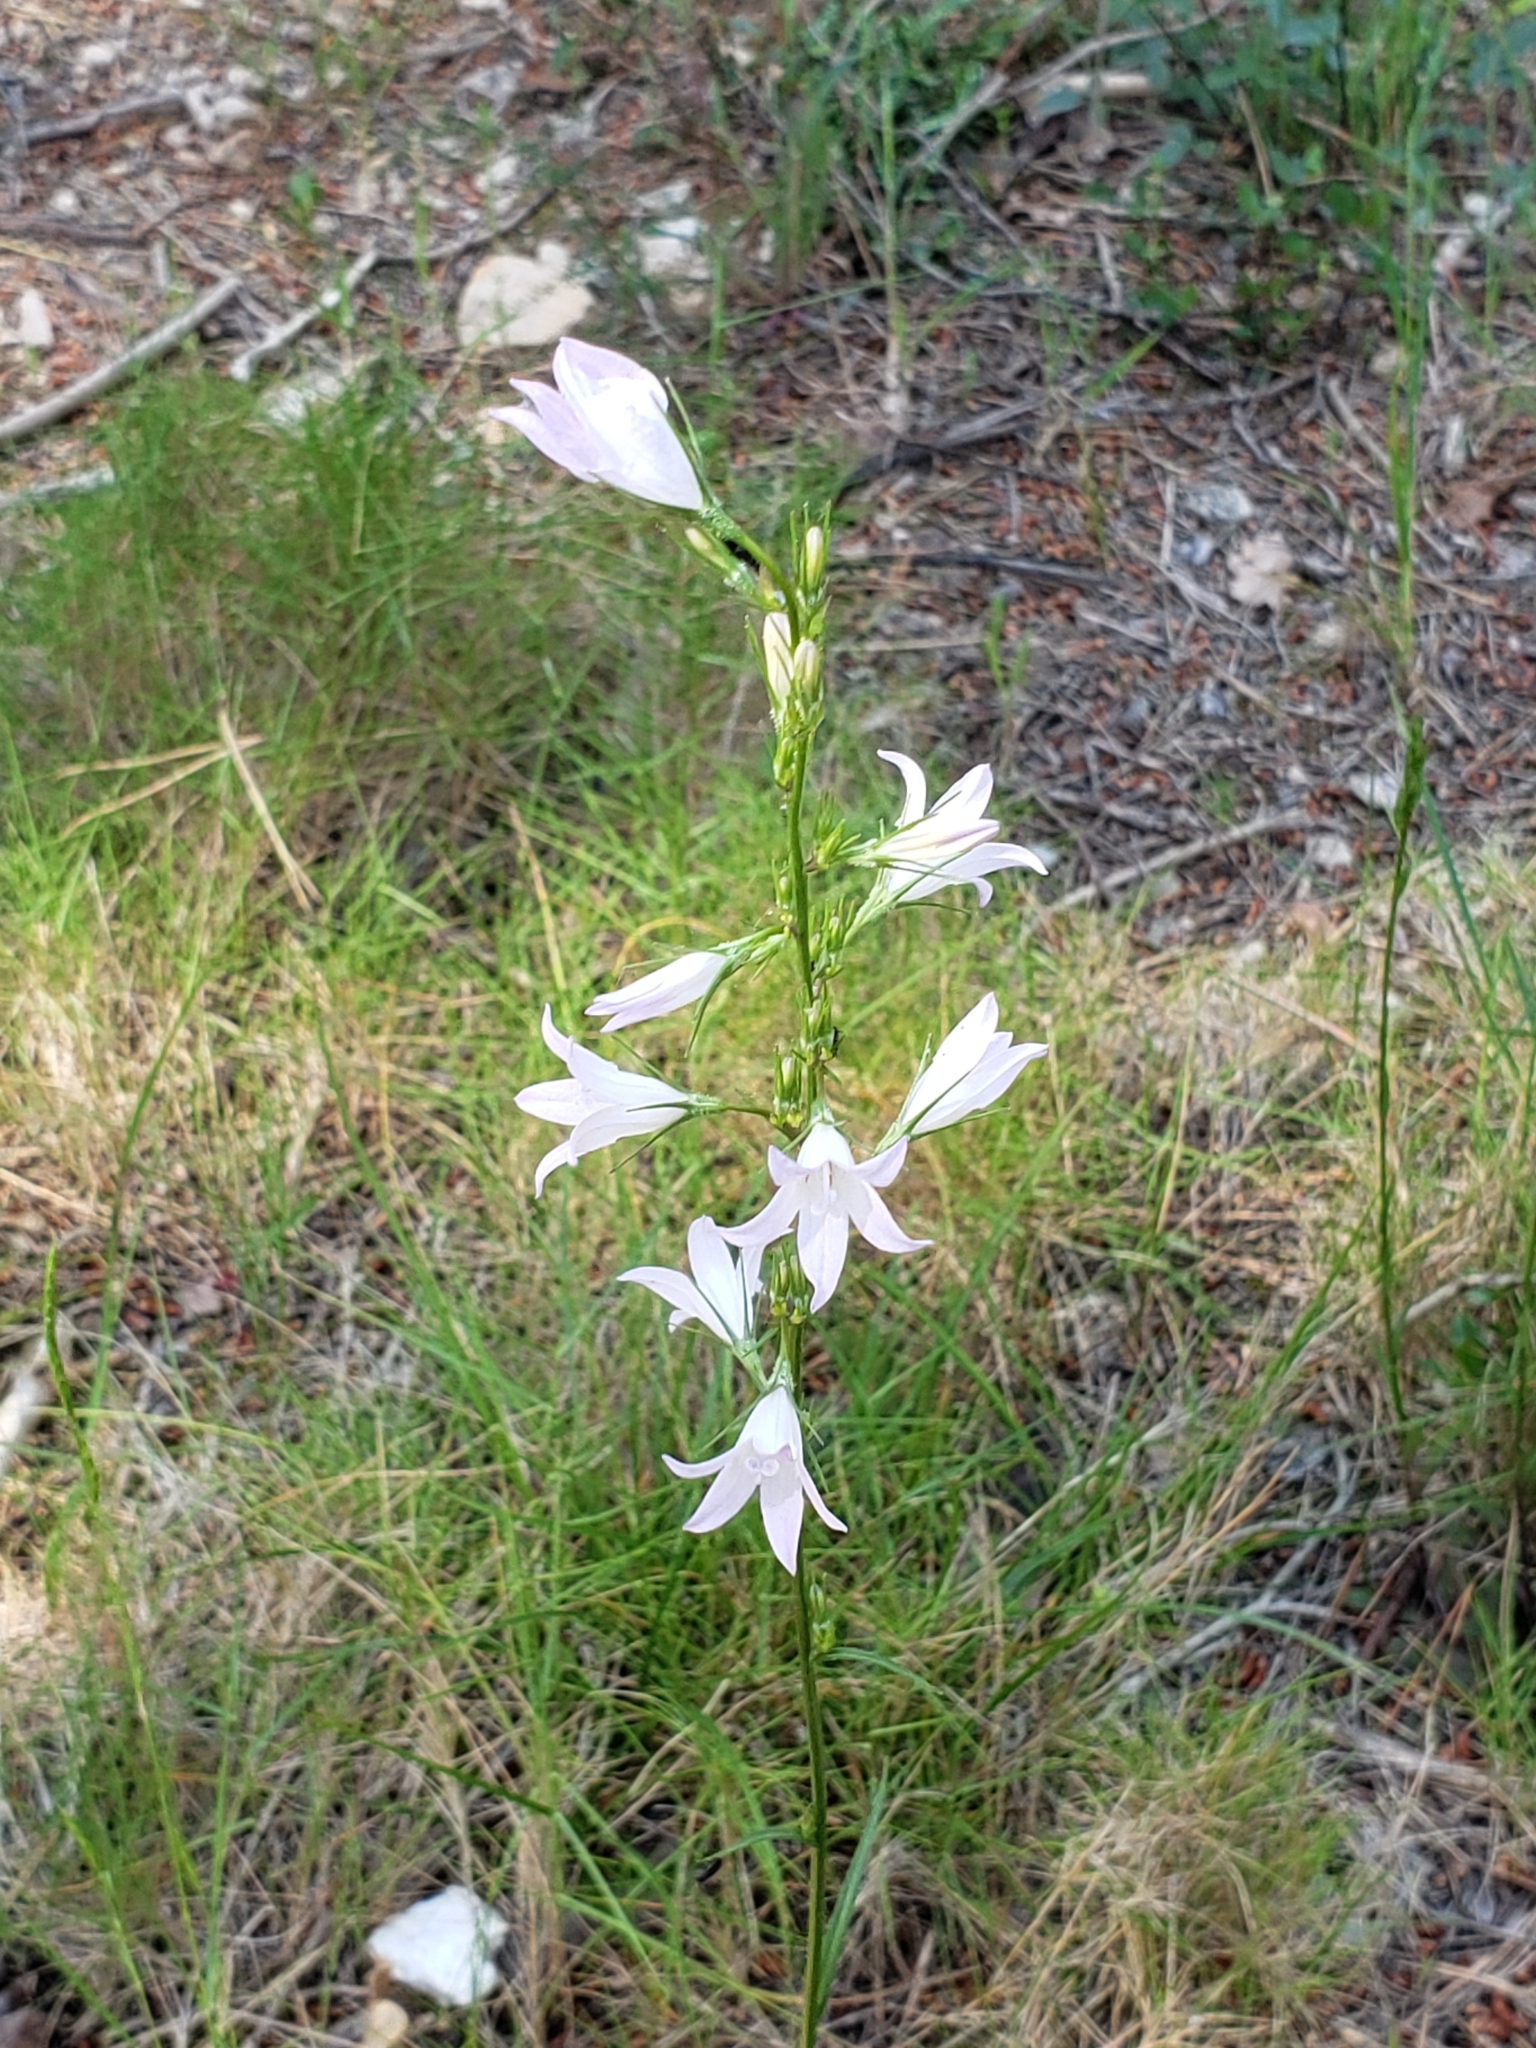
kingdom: Plantae
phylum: Tracheophyta
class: Magnoliopsida
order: Asterales
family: Campanulaceae
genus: Campanula
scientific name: Campanula rapunculus
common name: Rampion bellflower
